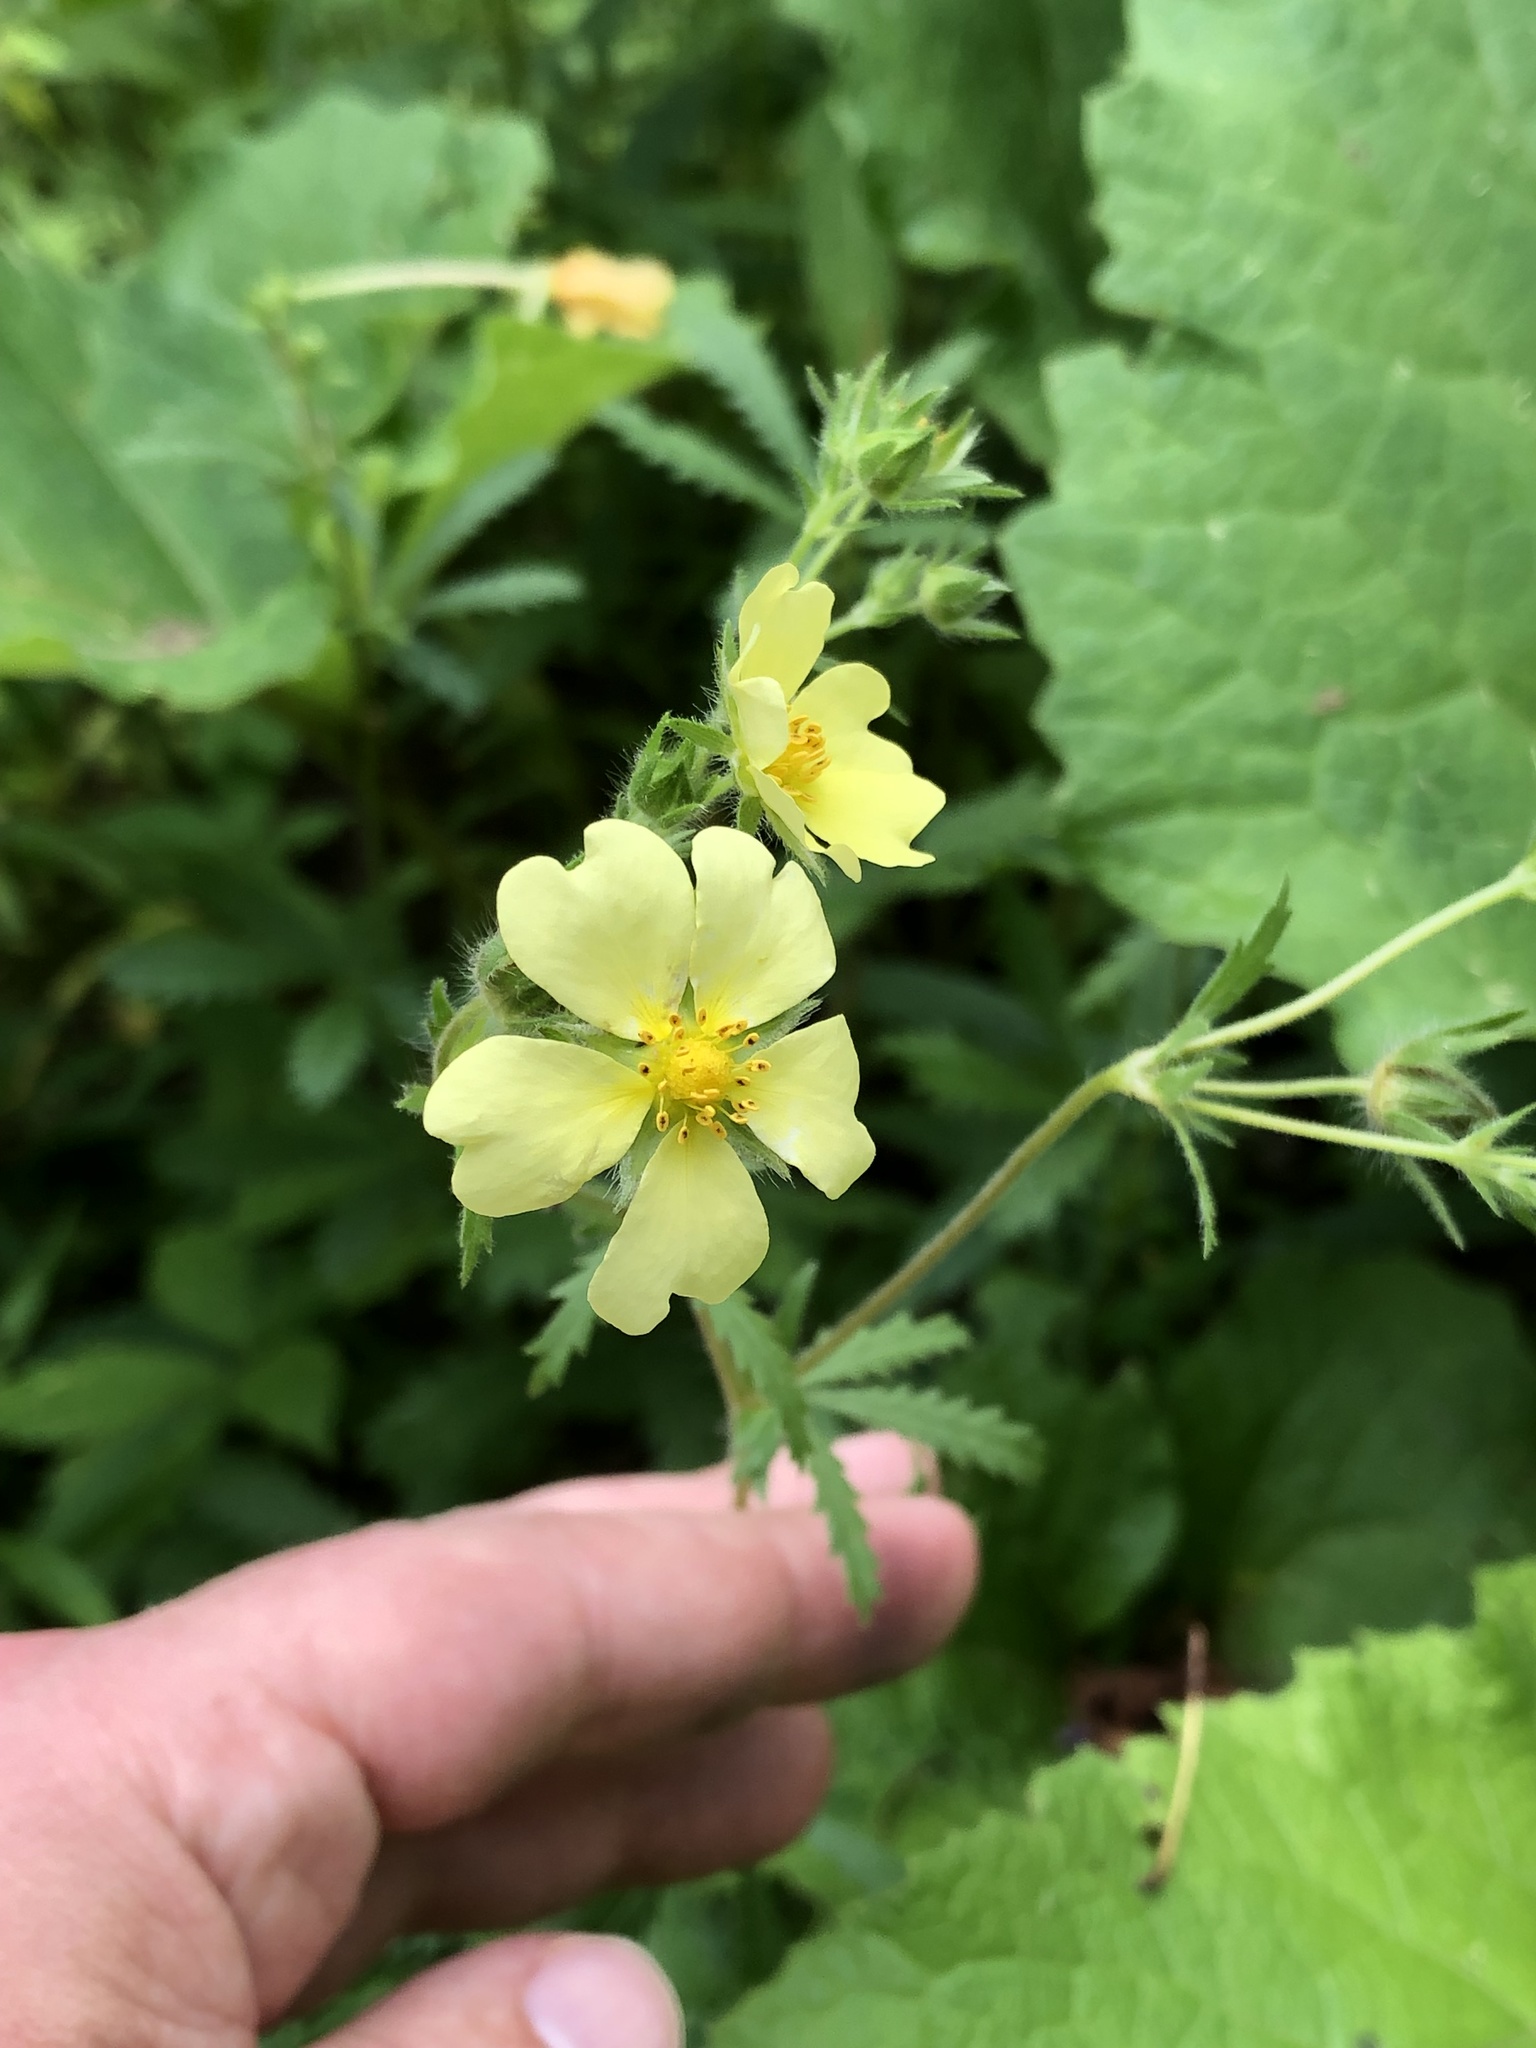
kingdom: Plantae
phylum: Tracheophyta
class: Magnoliopsida
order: Rosales
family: Rosaceae
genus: Potentilla
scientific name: Potentilla recta
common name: Sulphur cinquefoil
